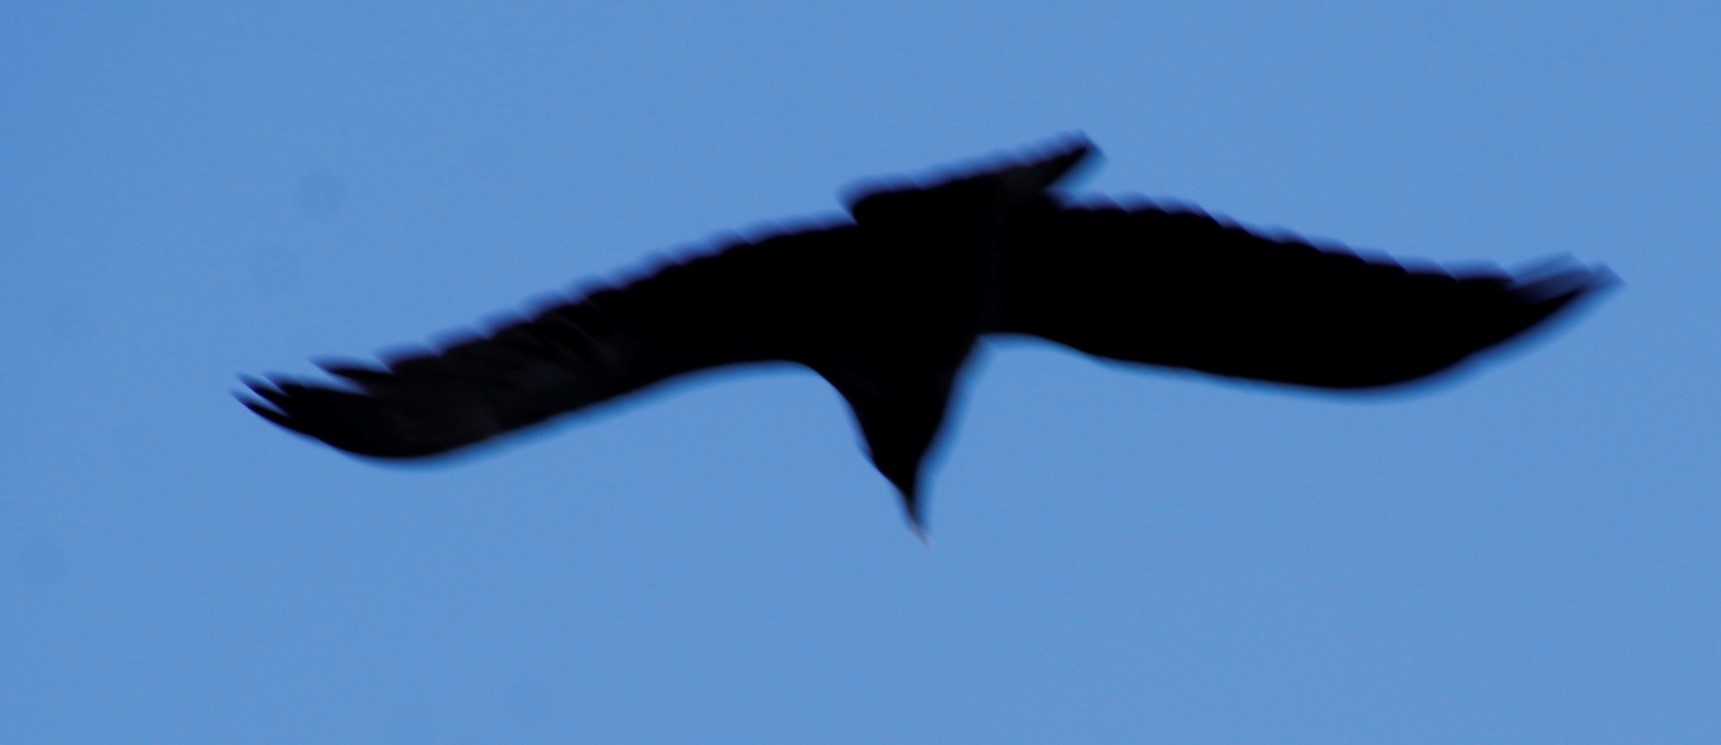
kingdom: Animalia
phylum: Chordata
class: Aves
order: Passeriformes
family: Corvidae
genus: Corvus
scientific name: Corvus albicollis
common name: White-necked raven
